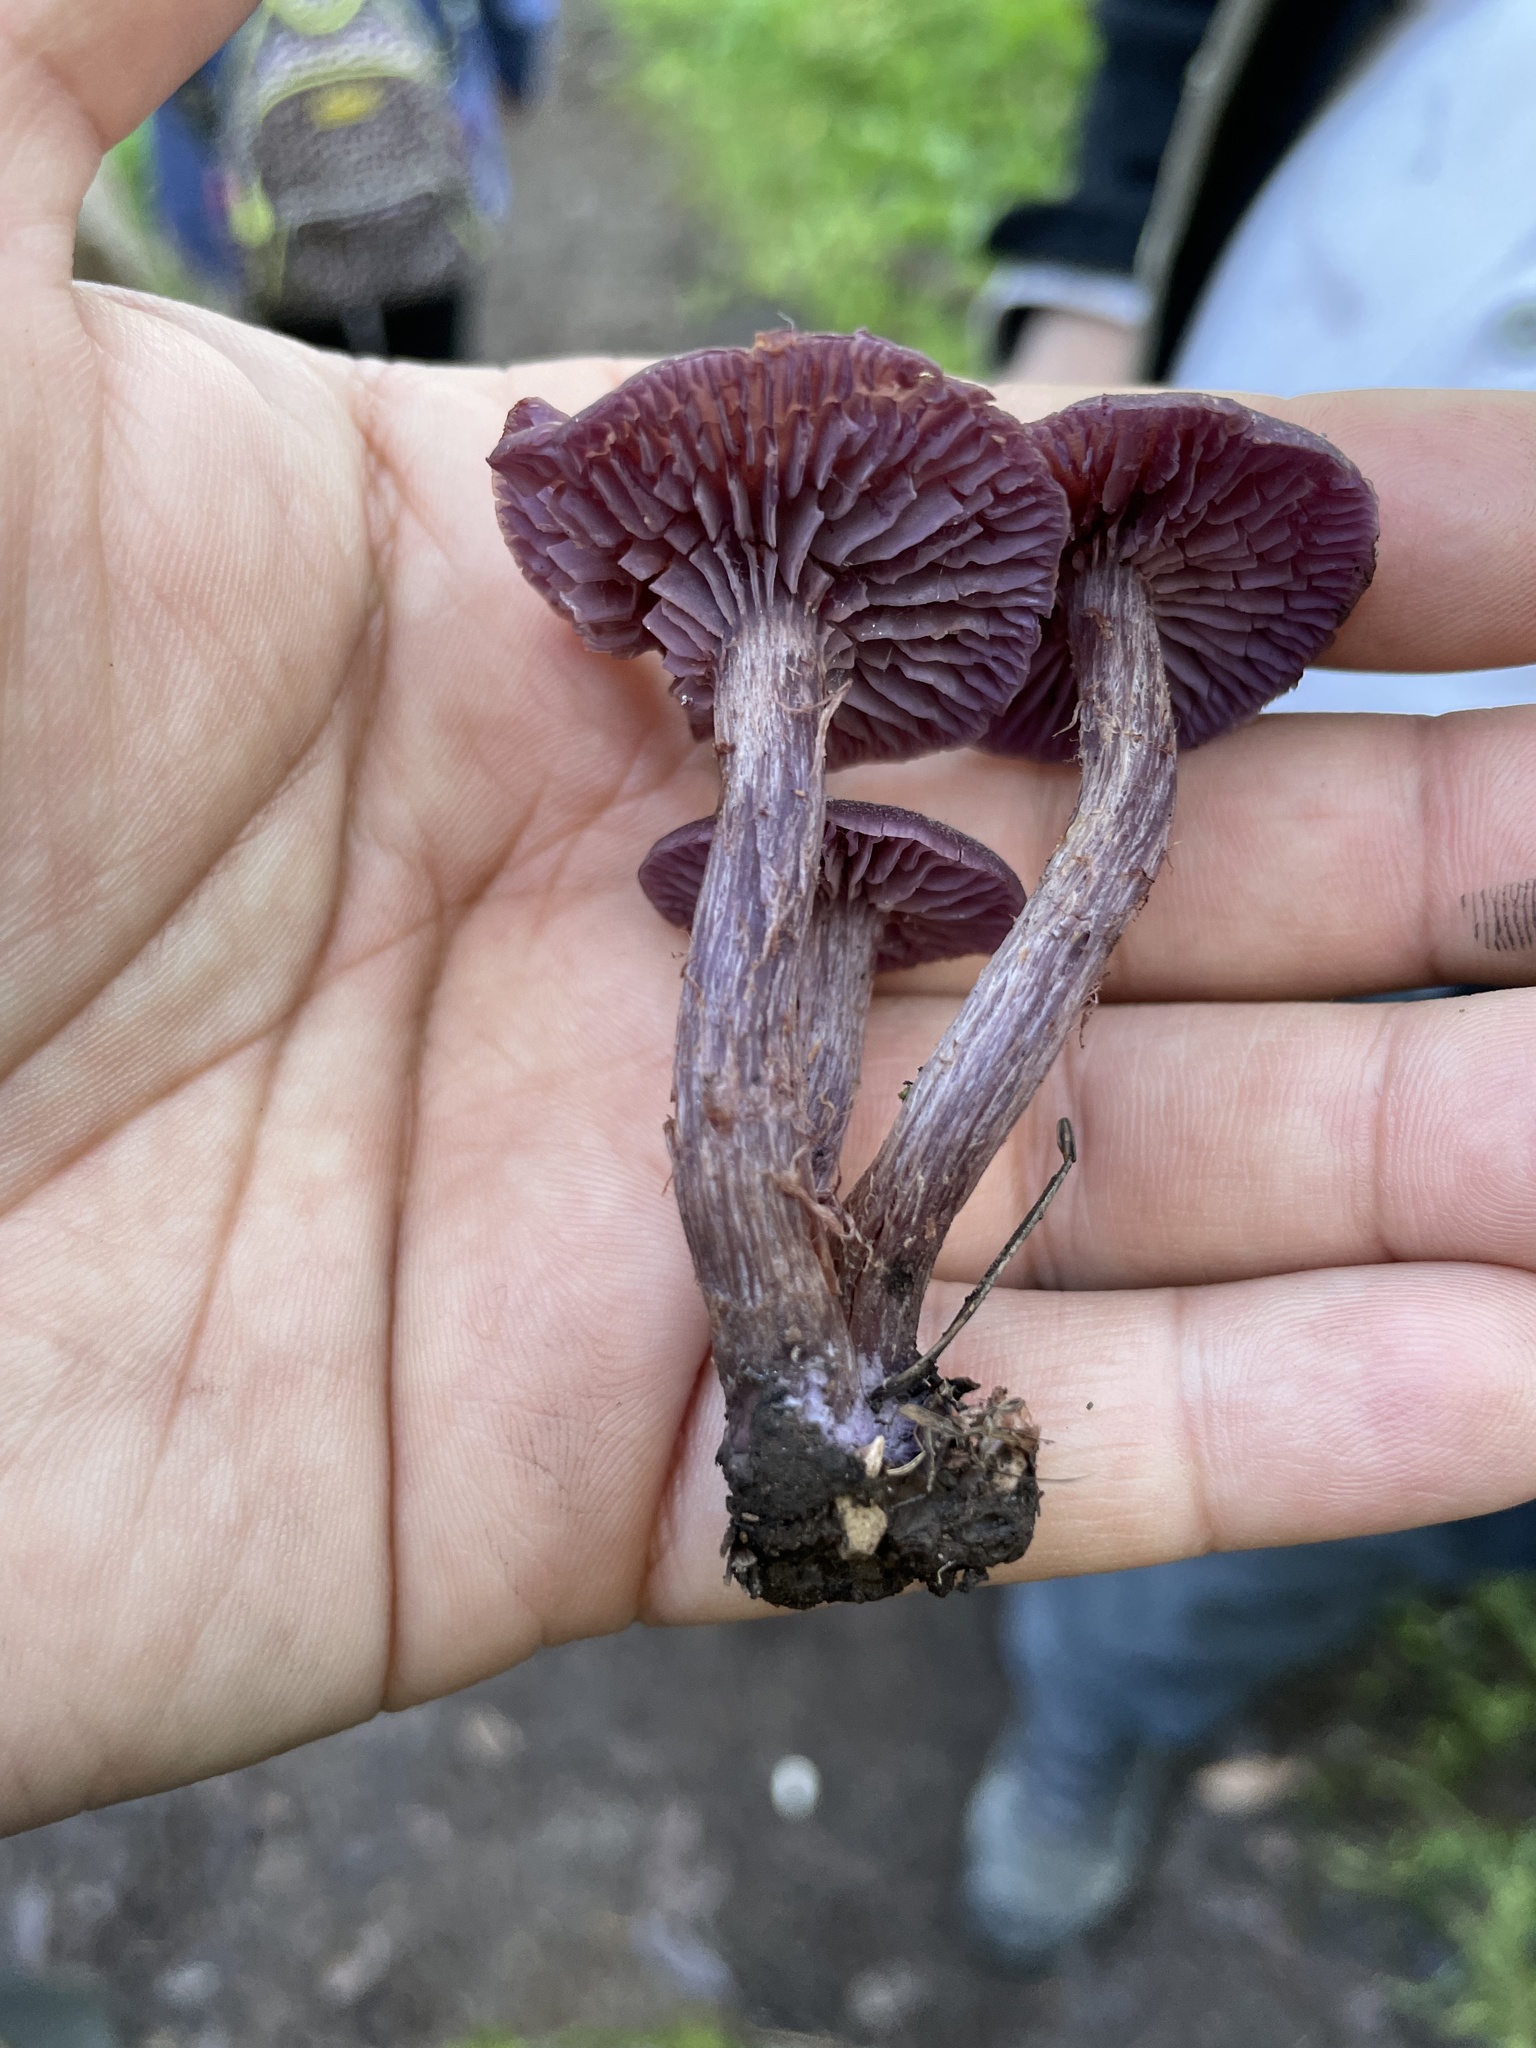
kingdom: Fungi
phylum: Basidiomycota
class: Agaricomycetes
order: Agaricales
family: Hydnangiaceae
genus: Laccaria
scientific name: Laccaria amethysteo-occidentalis
